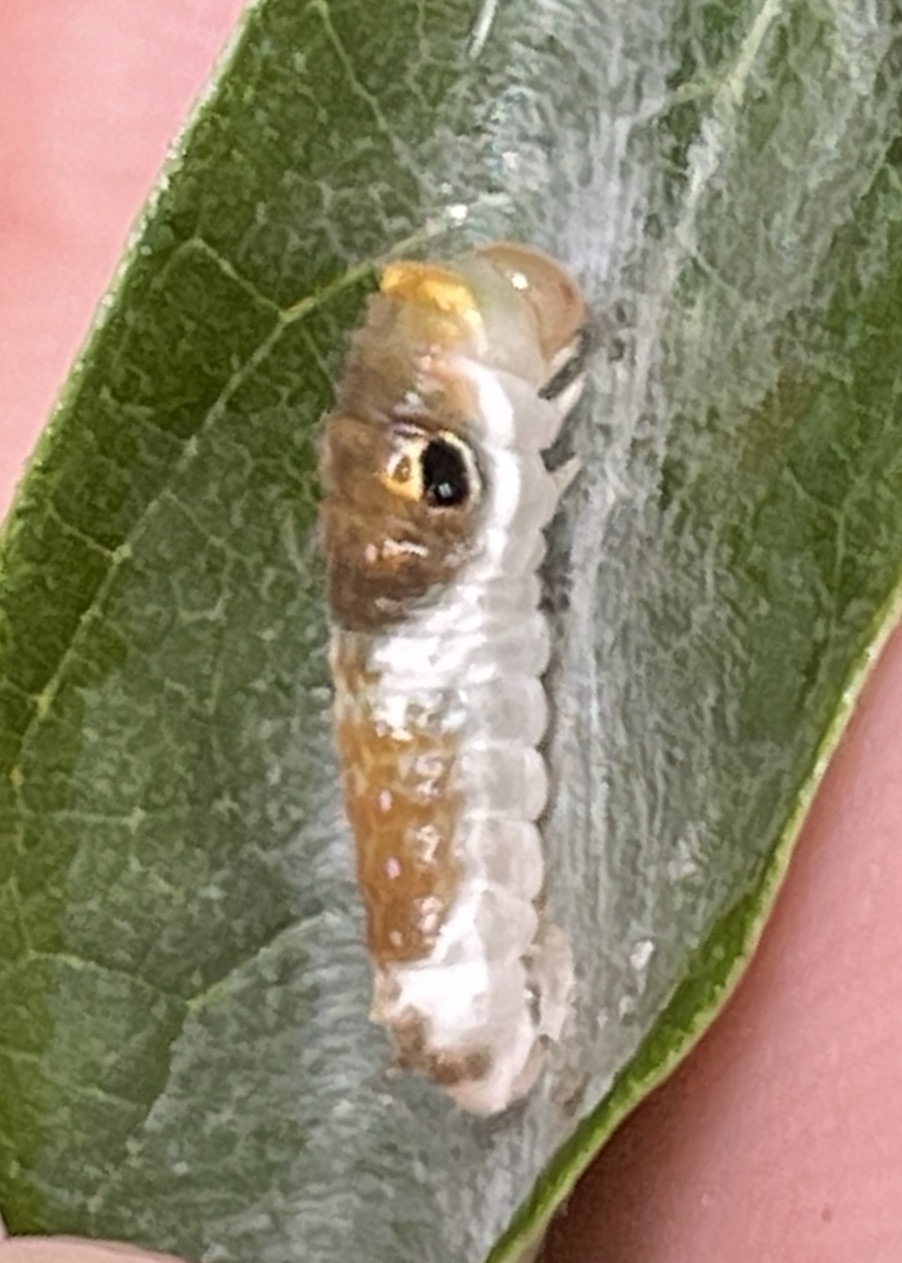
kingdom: Animalia
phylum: Arthropoda
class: Insecta
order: Lepidoptera
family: Papilionidae
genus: Papilio
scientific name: Papilio troilus
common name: Spicebush swallowtail
